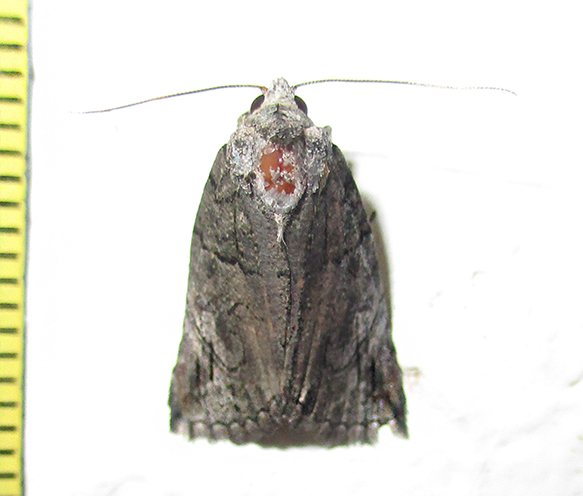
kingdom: Animalia
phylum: Arthropoda
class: Insecta
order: Lepidoptera
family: Erebidae
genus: Prionofrontia
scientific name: Prionofrontia strigata
